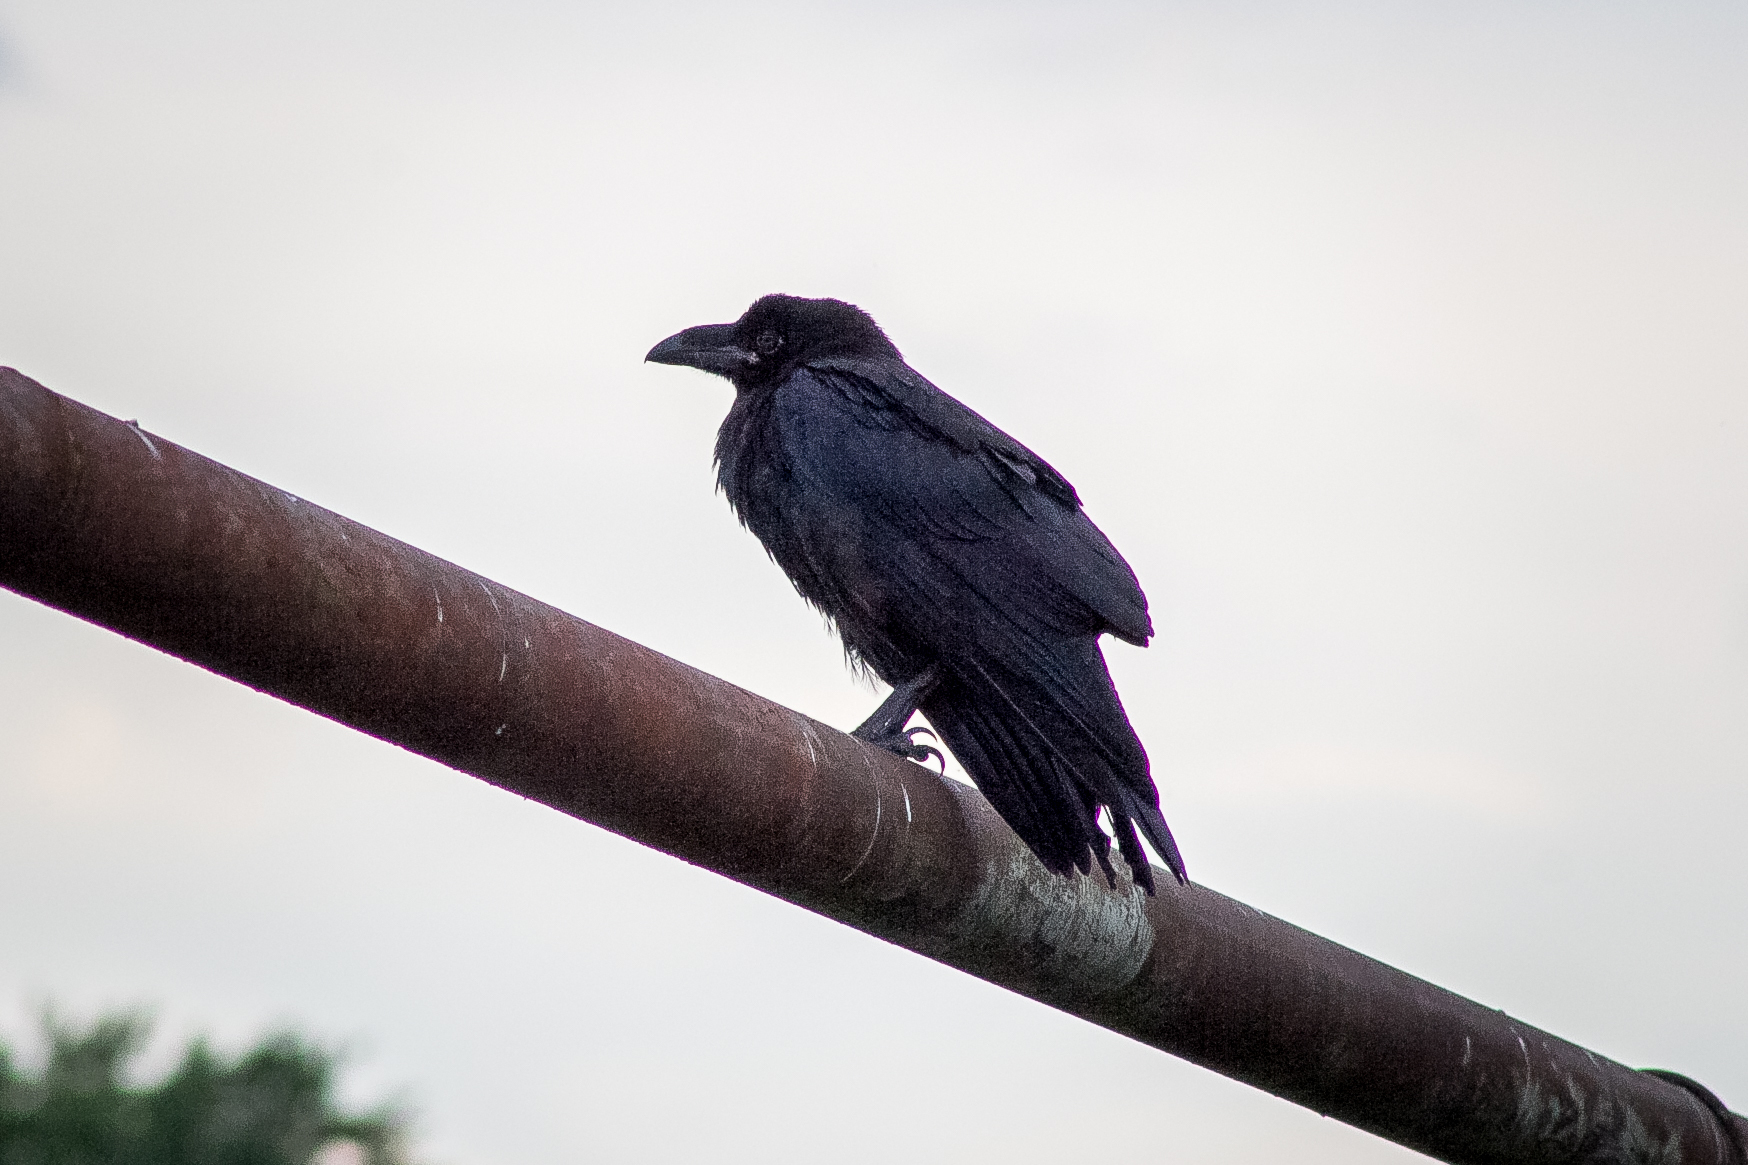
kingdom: Animalia
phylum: Chordata
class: Aves
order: Passeriformes
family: Corvidae
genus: Corvus
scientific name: Corvus corax
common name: Common raven
